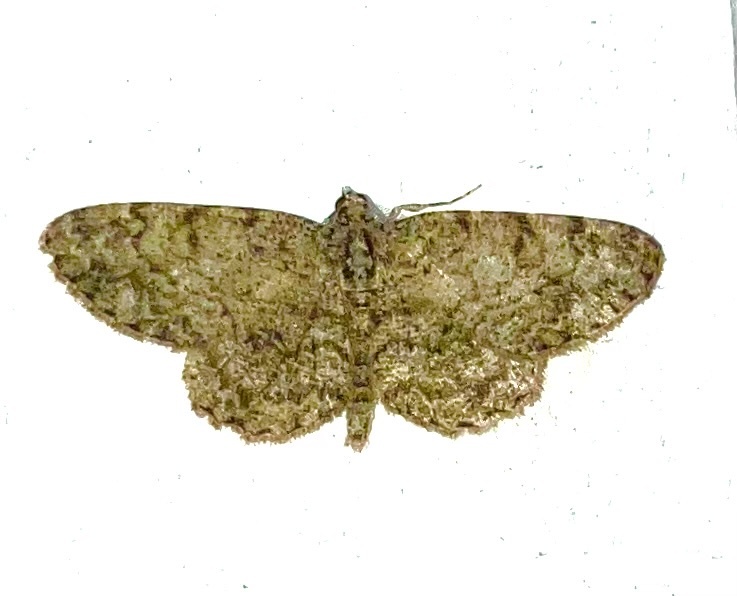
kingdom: Animalia
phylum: Arthropoda
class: Insecta
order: Lepidoptera
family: Geometridae
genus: Protoboarmia
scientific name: Protoboarmia porcelaria
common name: Porcelain gray
